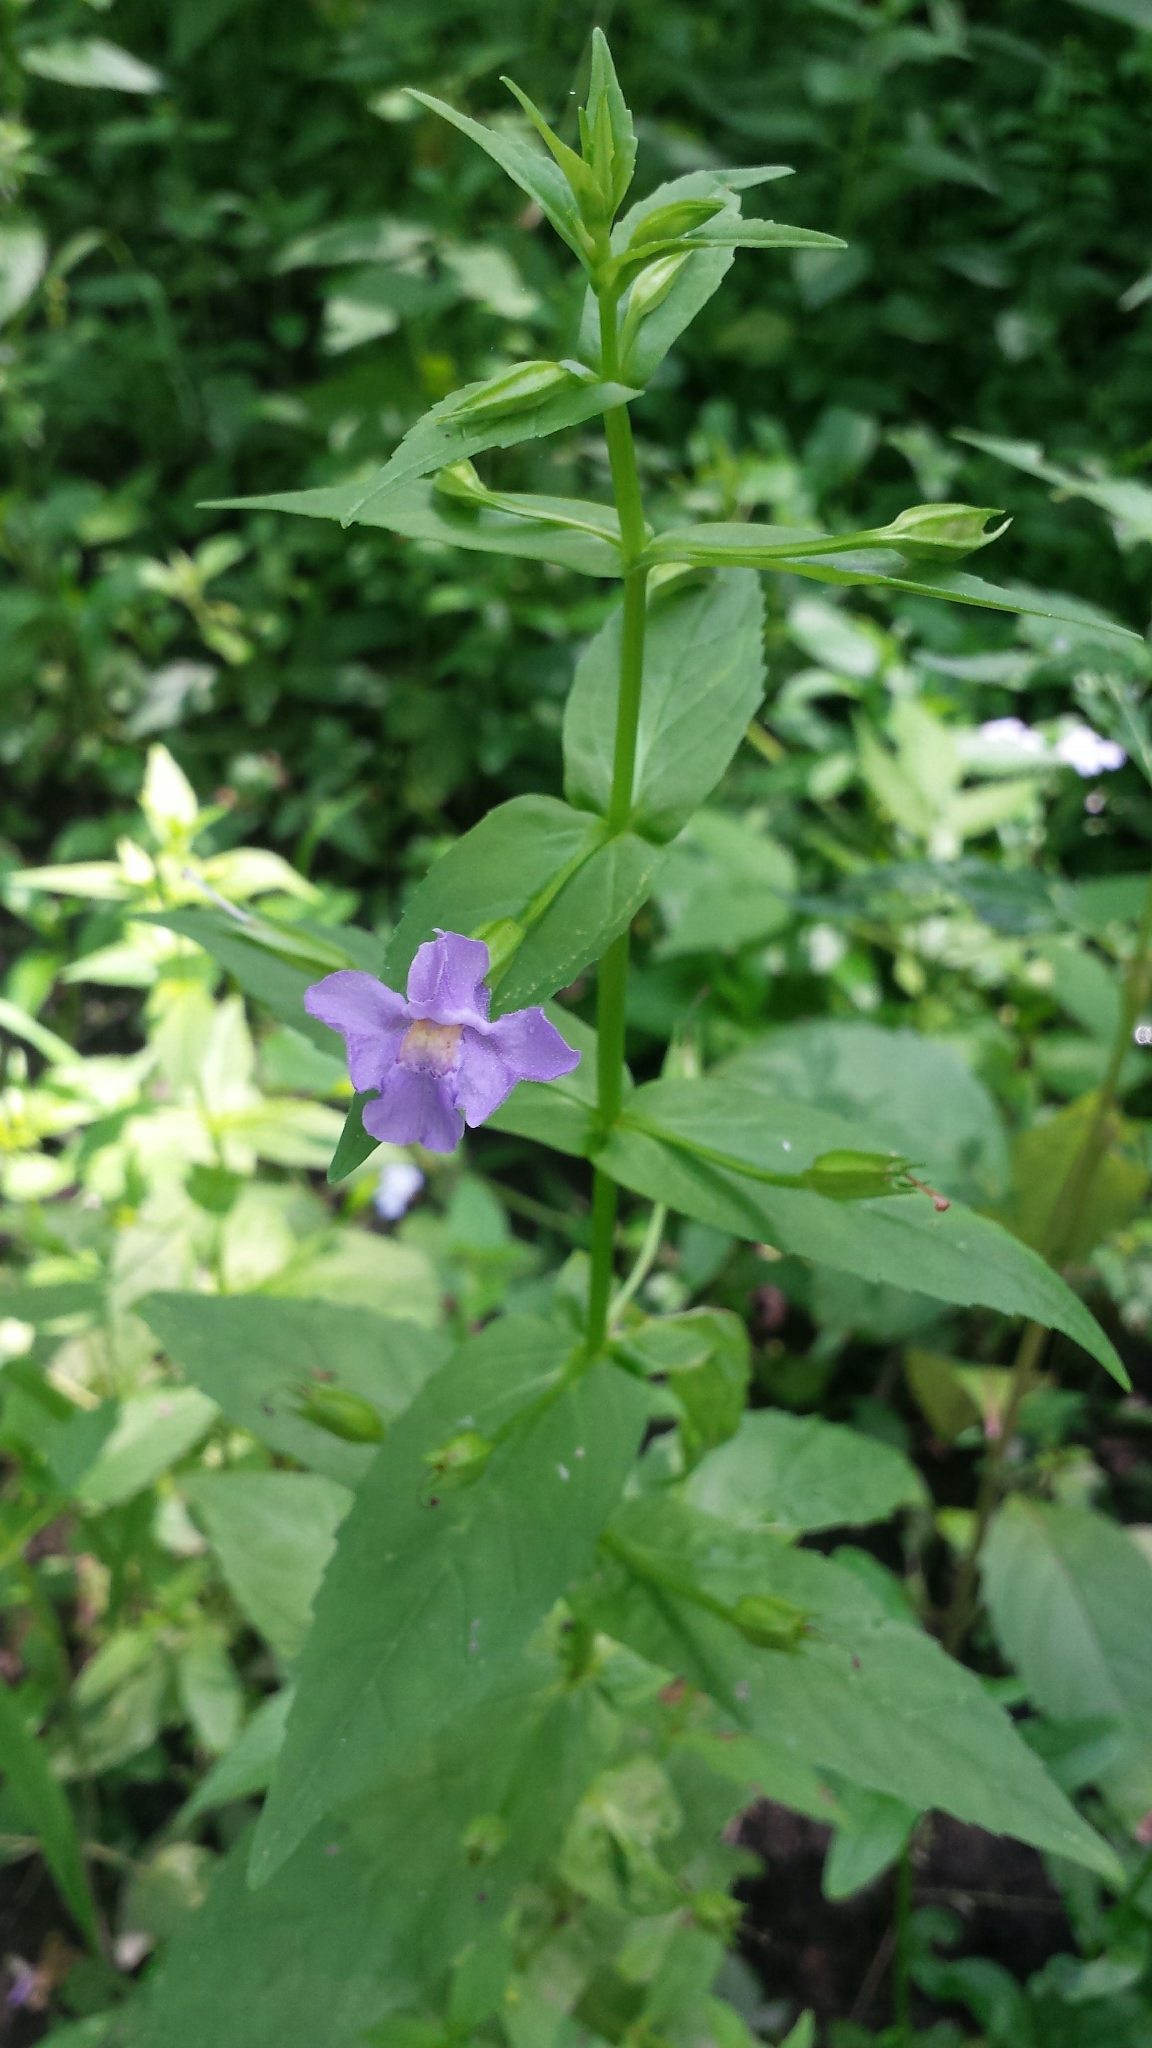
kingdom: Plantae
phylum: Tracheophyta
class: Magnoliopsida
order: Lamiales
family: Phrymaceae
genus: Mimulus
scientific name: Mimulus ringens
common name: Allegheny monkeyflower
